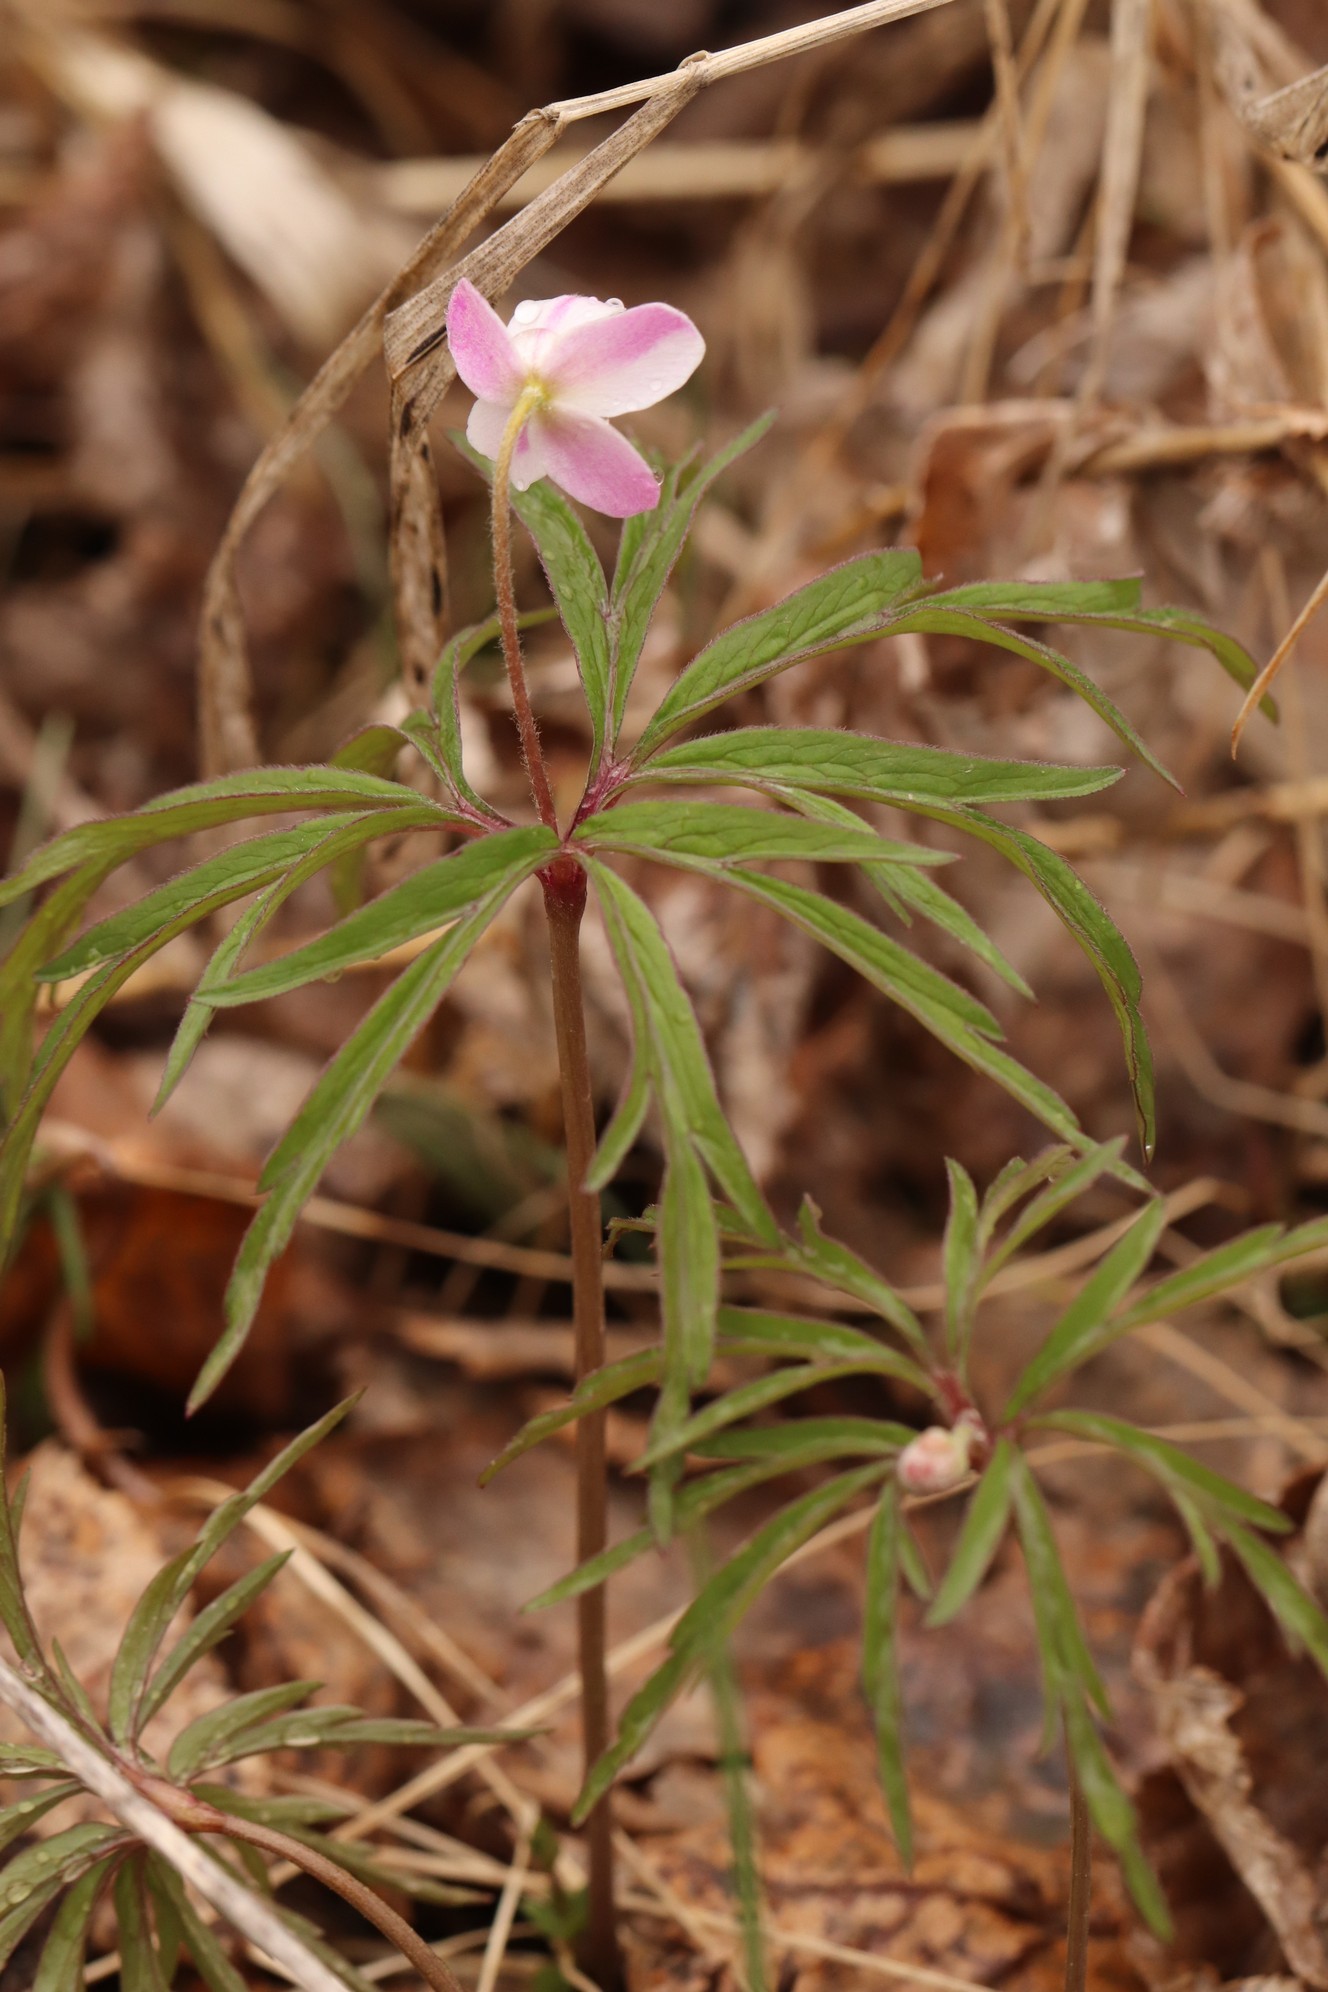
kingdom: Plantae
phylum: Tracheophyta
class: Magnoliopsida
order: Ranunculales
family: Ranunculaceae
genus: Anemone
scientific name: Anemone caerulea
